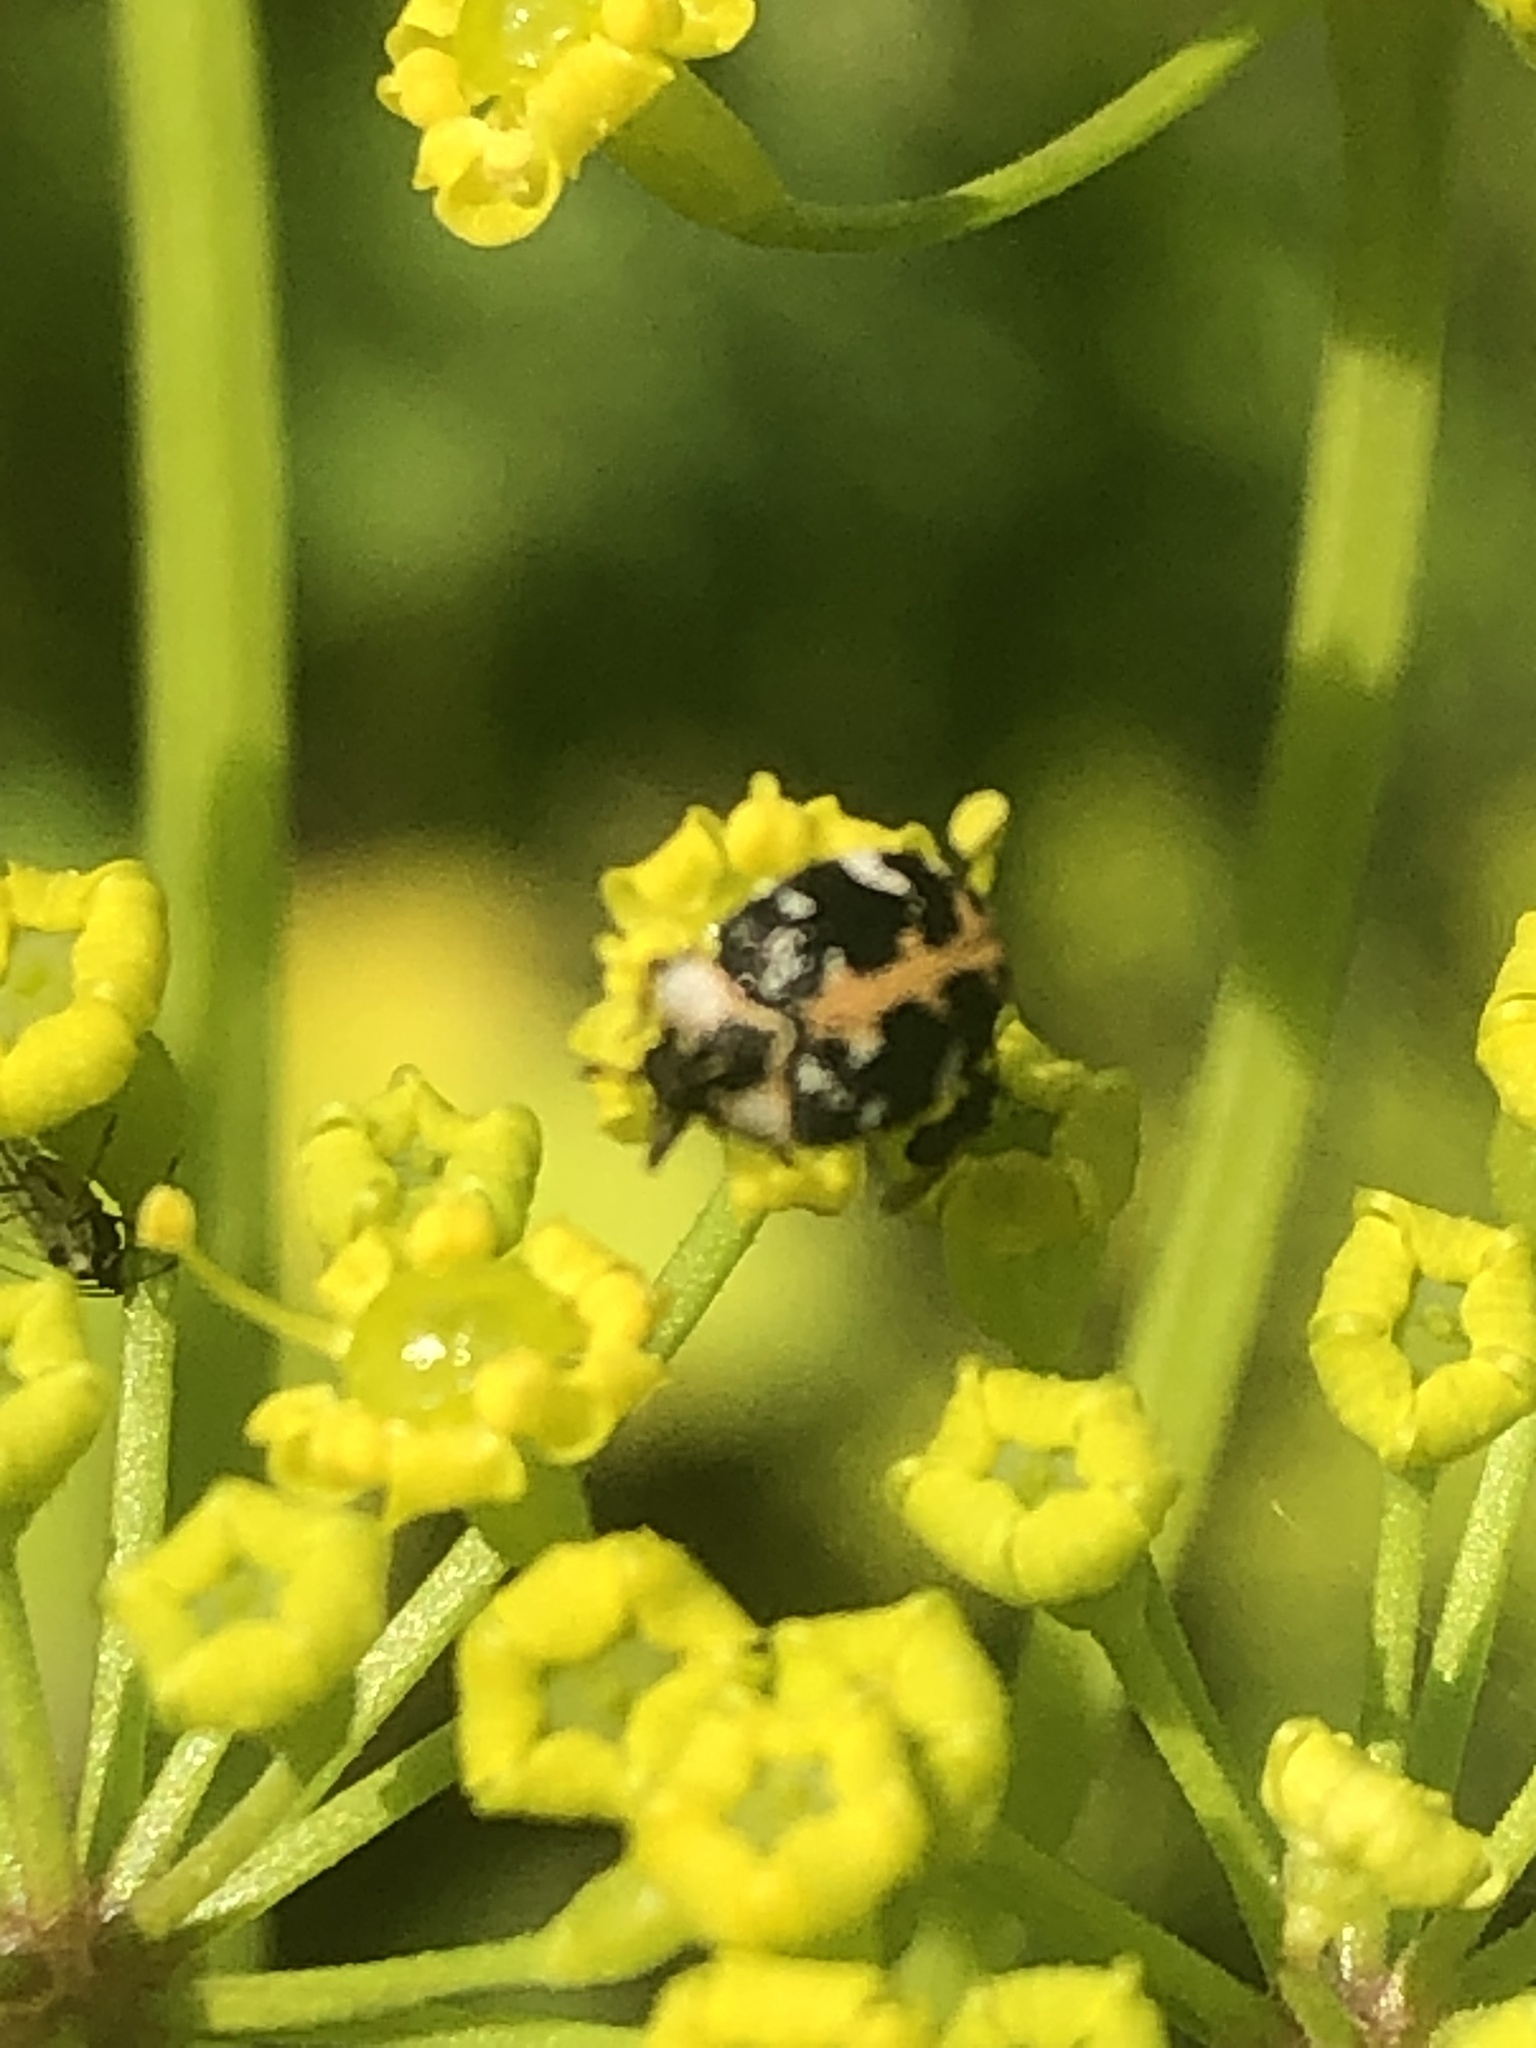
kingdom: Animalia
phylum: Arthropoda
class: Insecta
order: Coleoptera
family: Dermestidae
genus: Anthrenus
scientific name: Anthrenus scrophulariae
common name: Buffalo carpet beetle
